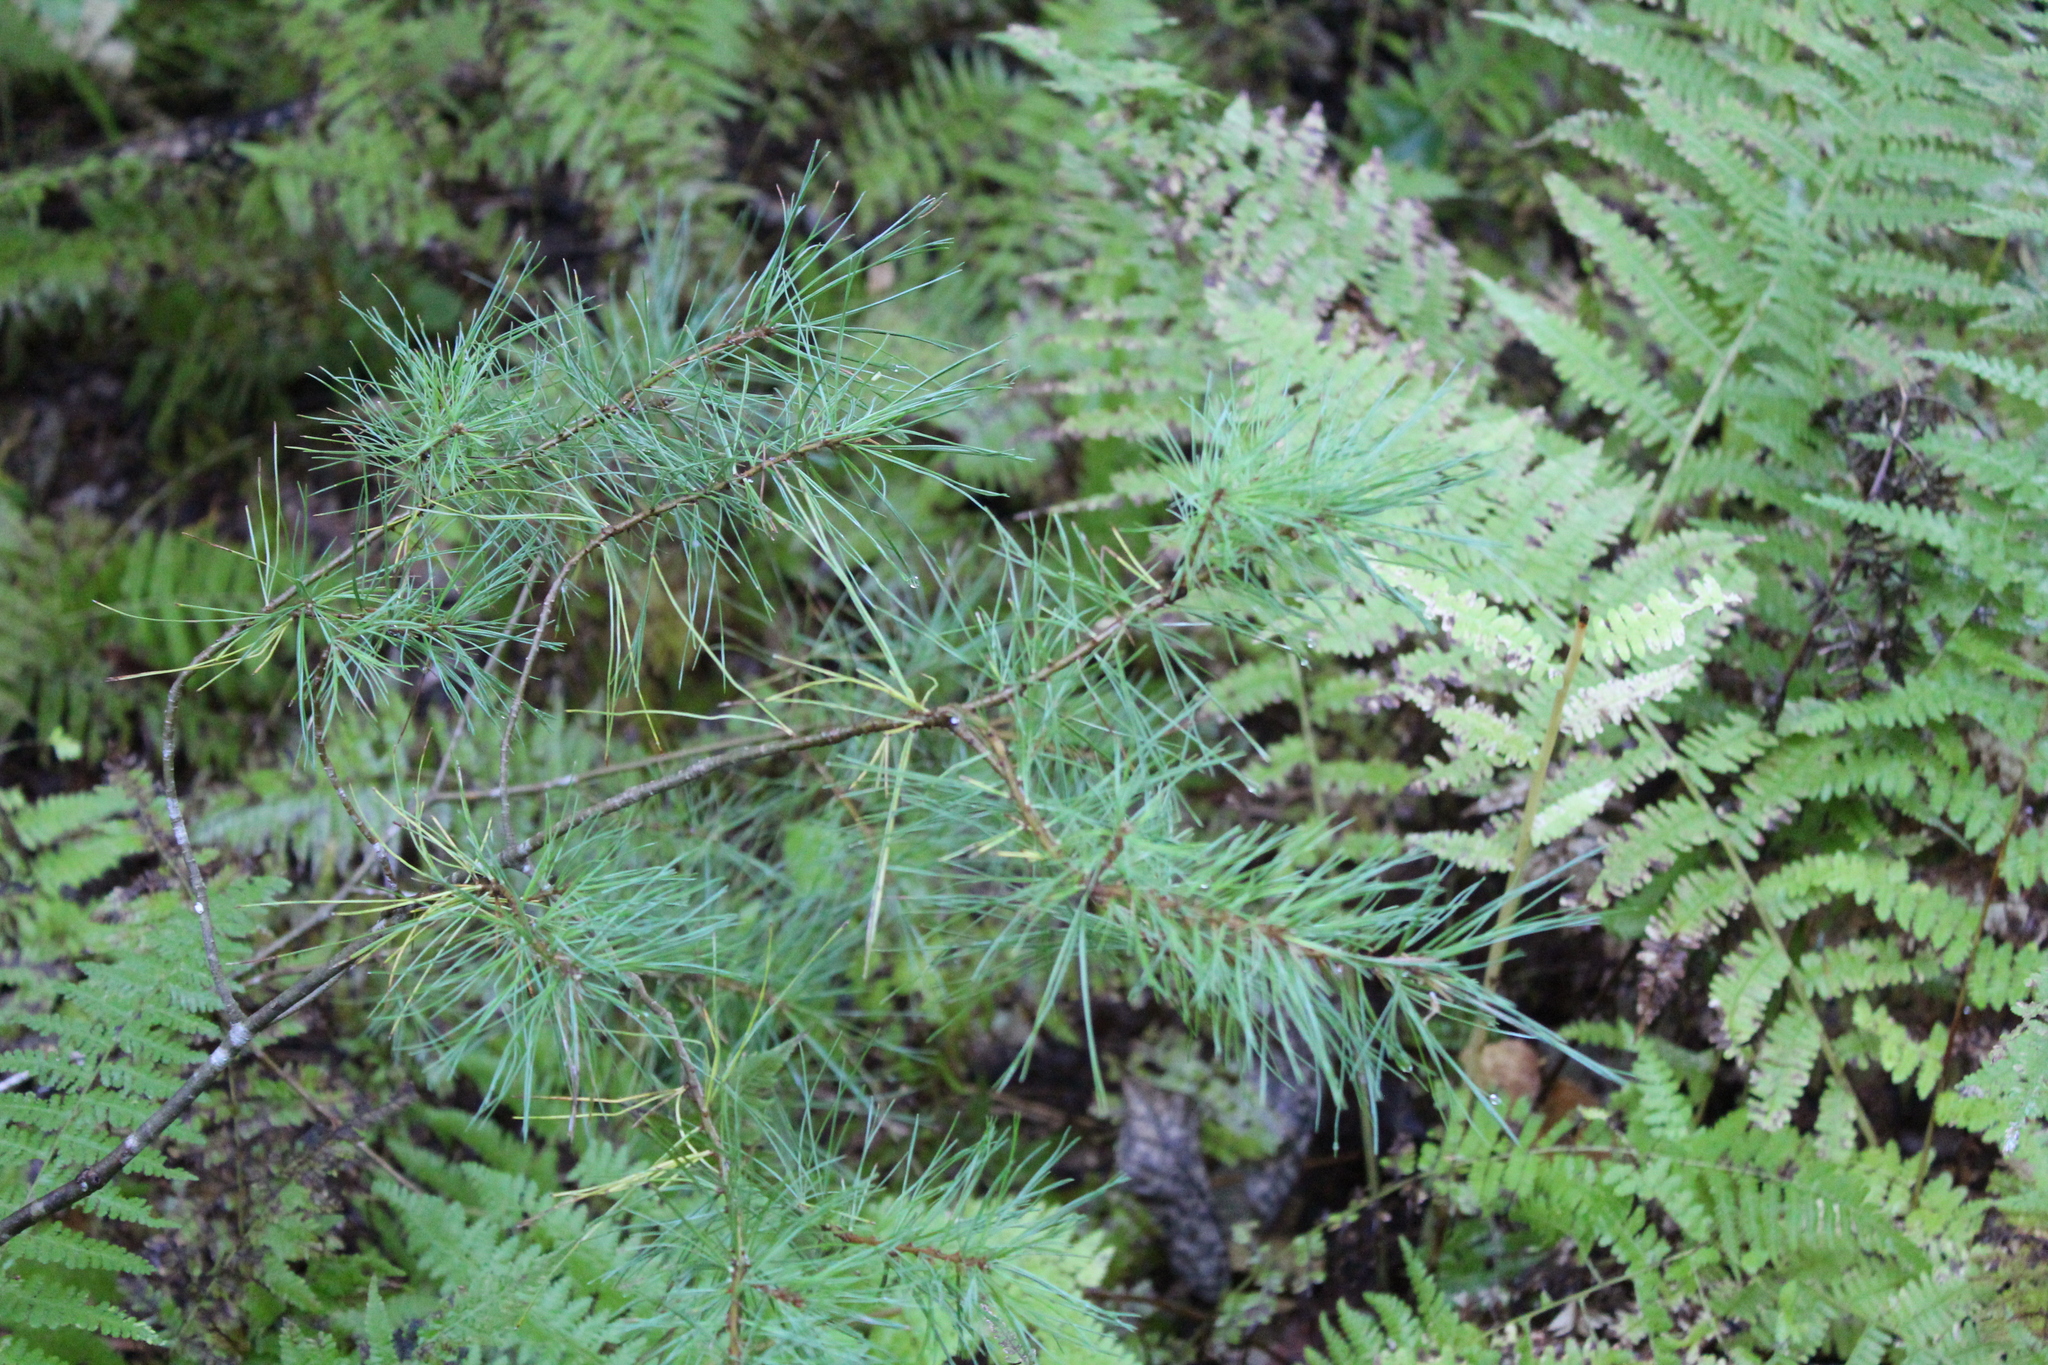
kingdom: Plantae
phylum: Tracheophyta
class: Pinopsida
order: Pinales
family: Pinaceae
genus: Pinus
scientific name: Pinus strobus
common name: Weymouth pine
